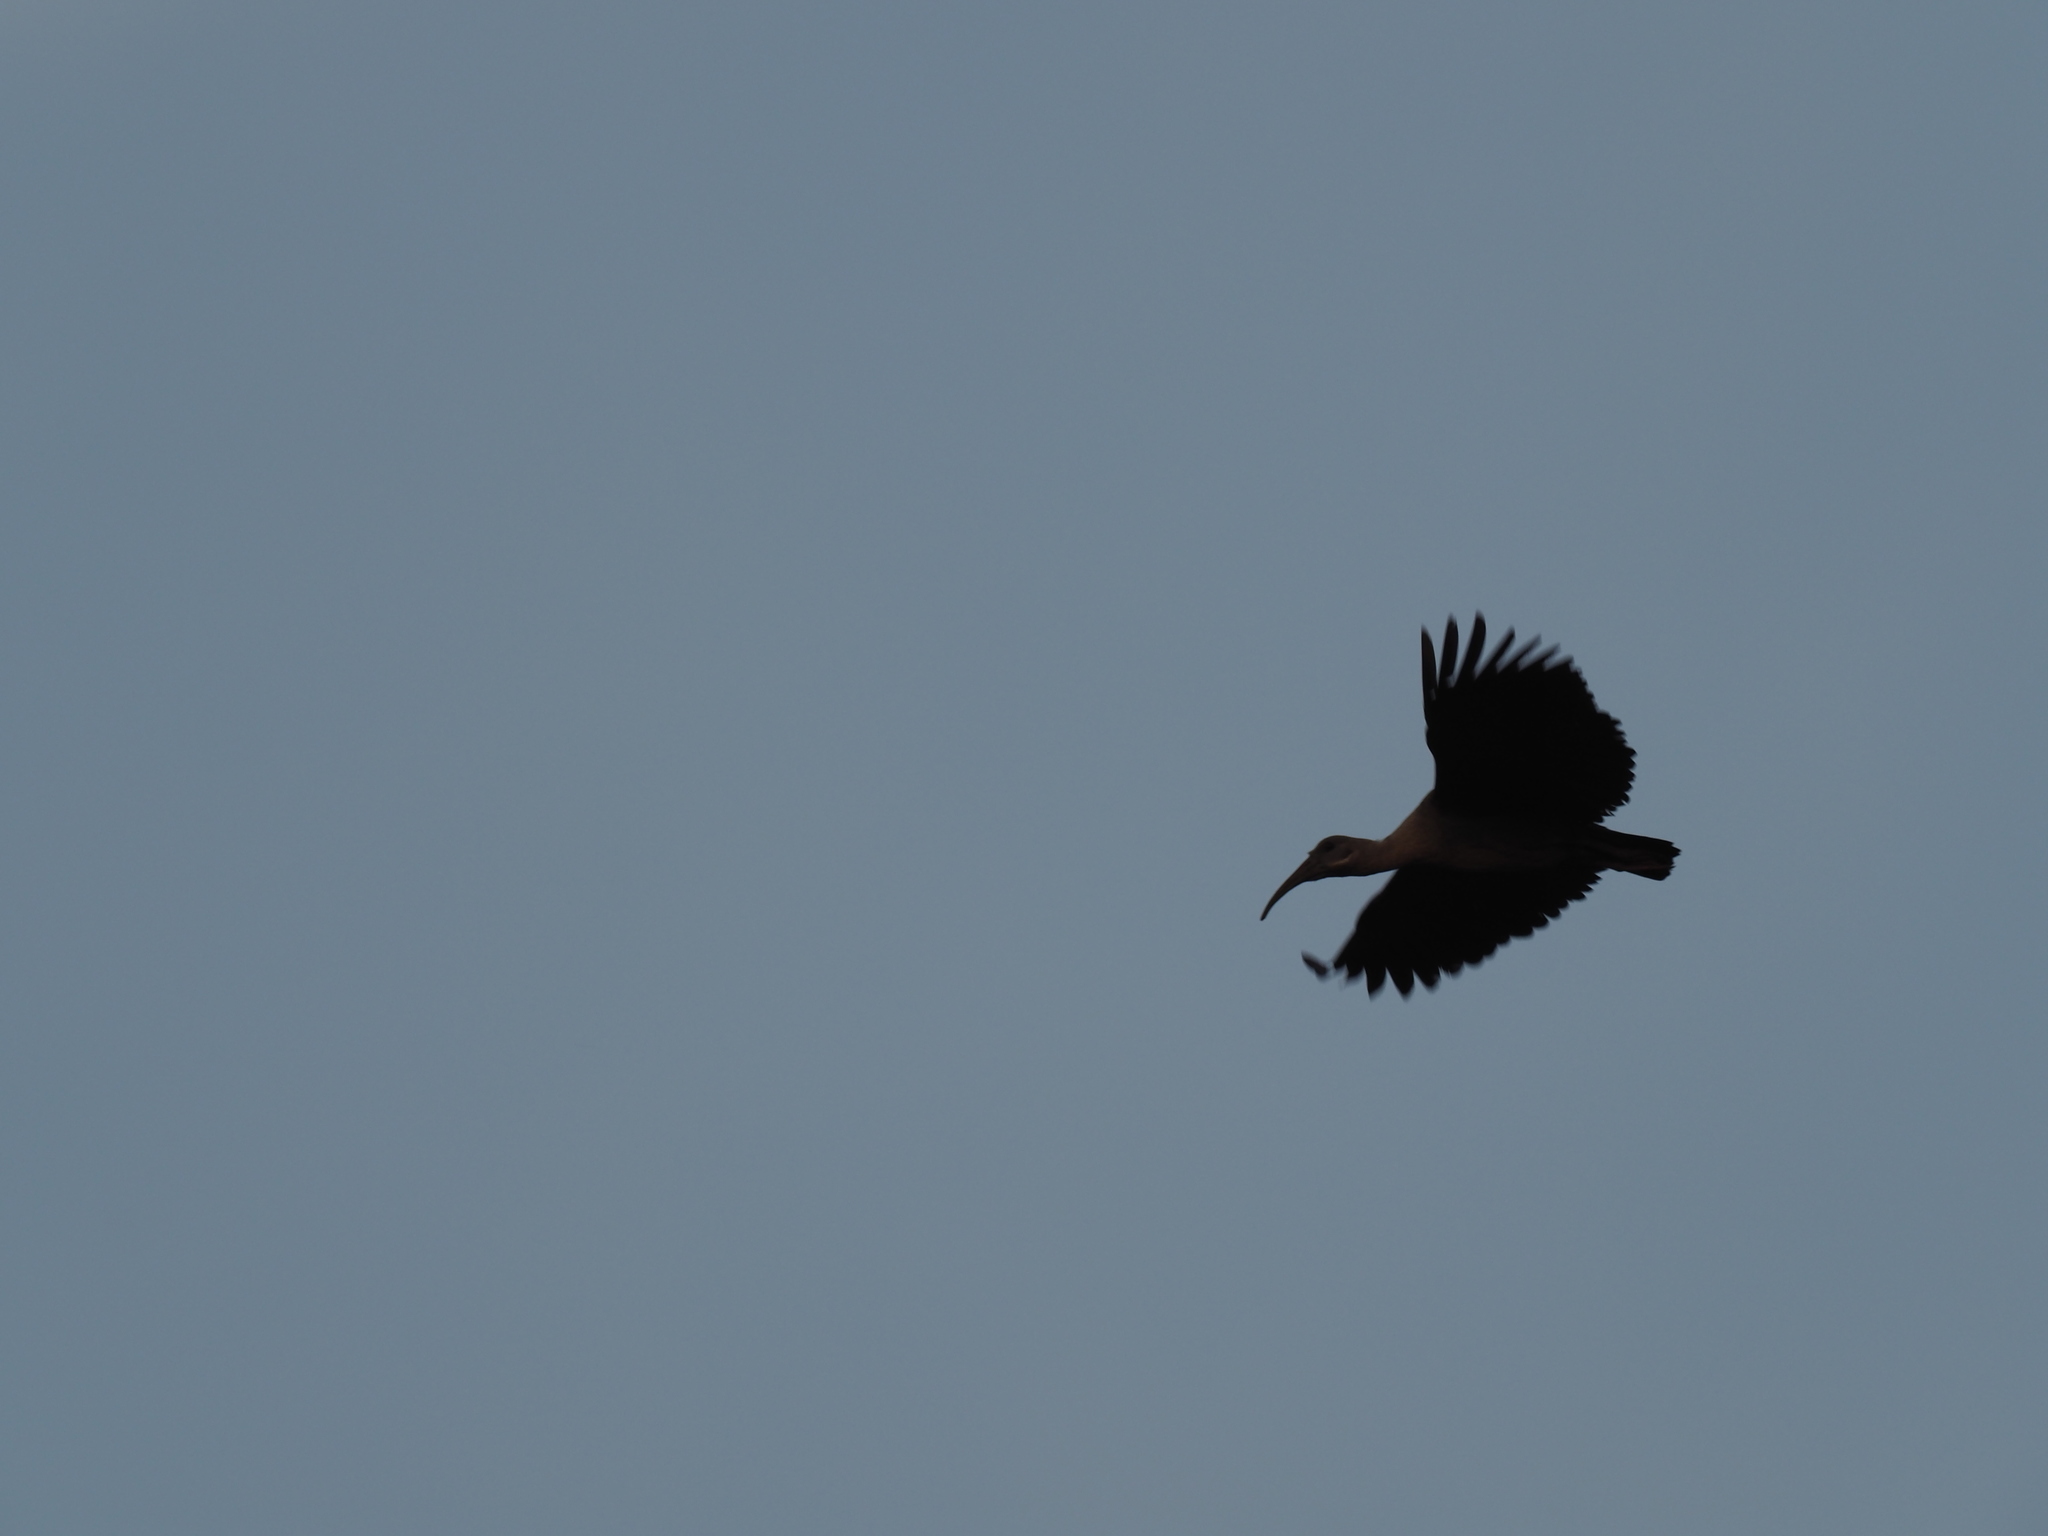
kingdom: Animalia
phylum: Chordata
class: Aves
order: Pelecaniformes
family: Threskiornithidae
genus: Bostrychia
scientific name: Bostrychia hagedash
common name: Hadada ibis
